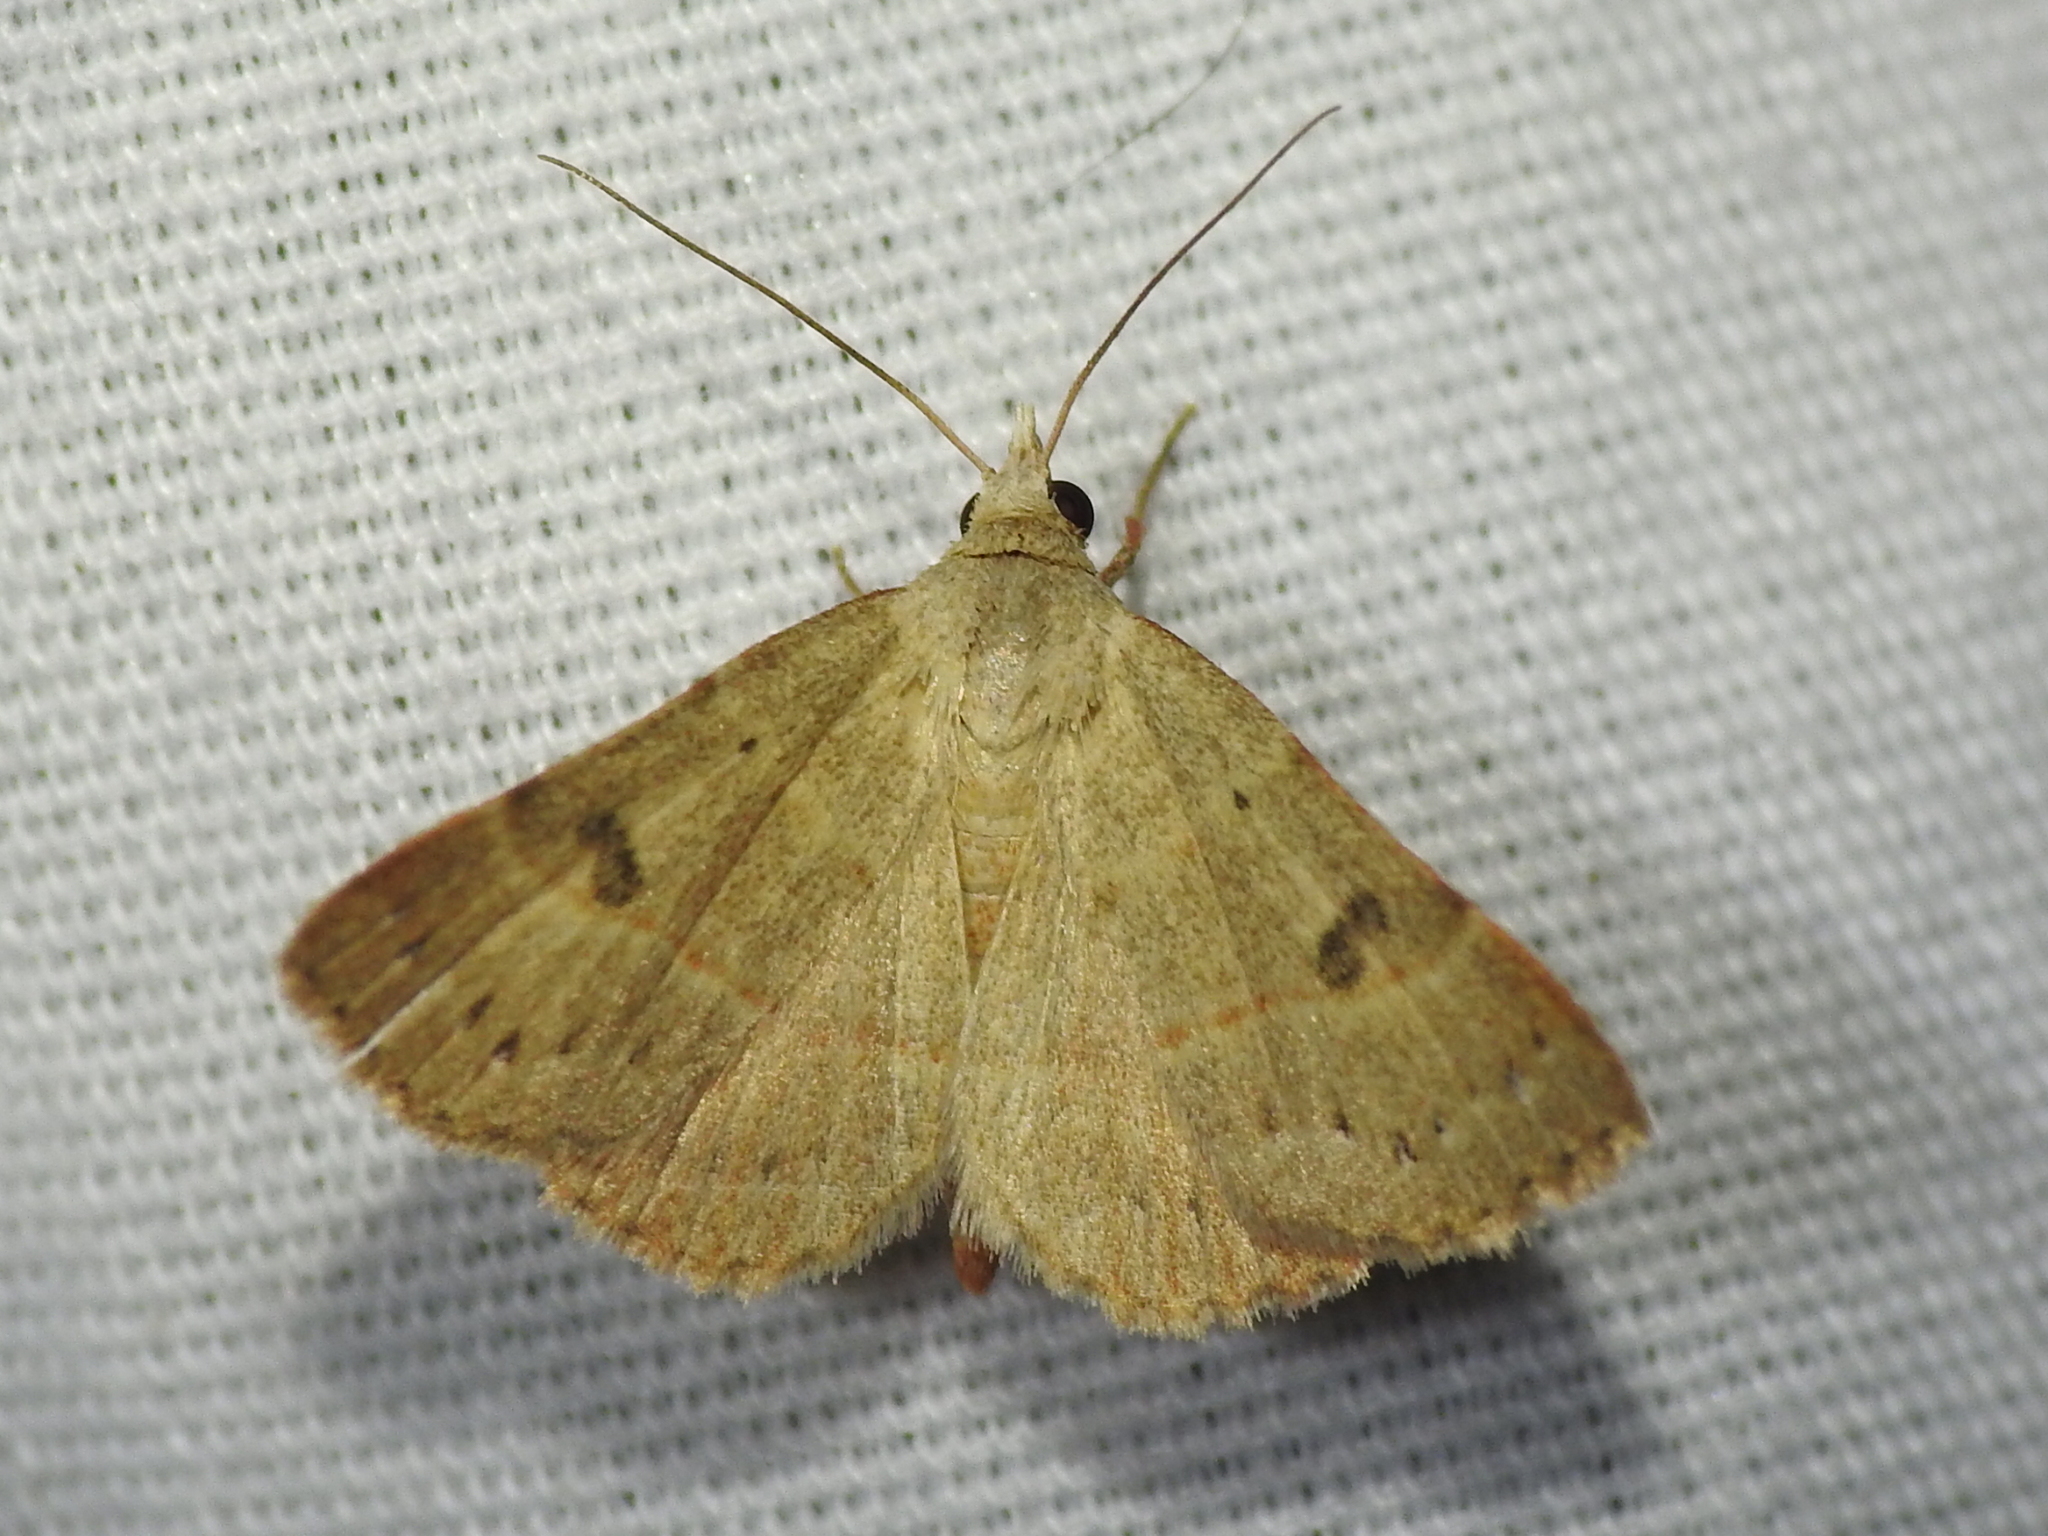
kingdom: Animalia
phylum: Arthropoda
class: Insecta
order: Lepidoptera
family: Erebidae
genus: Hemeroplanis
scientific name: Hemeroplanis habitalis
